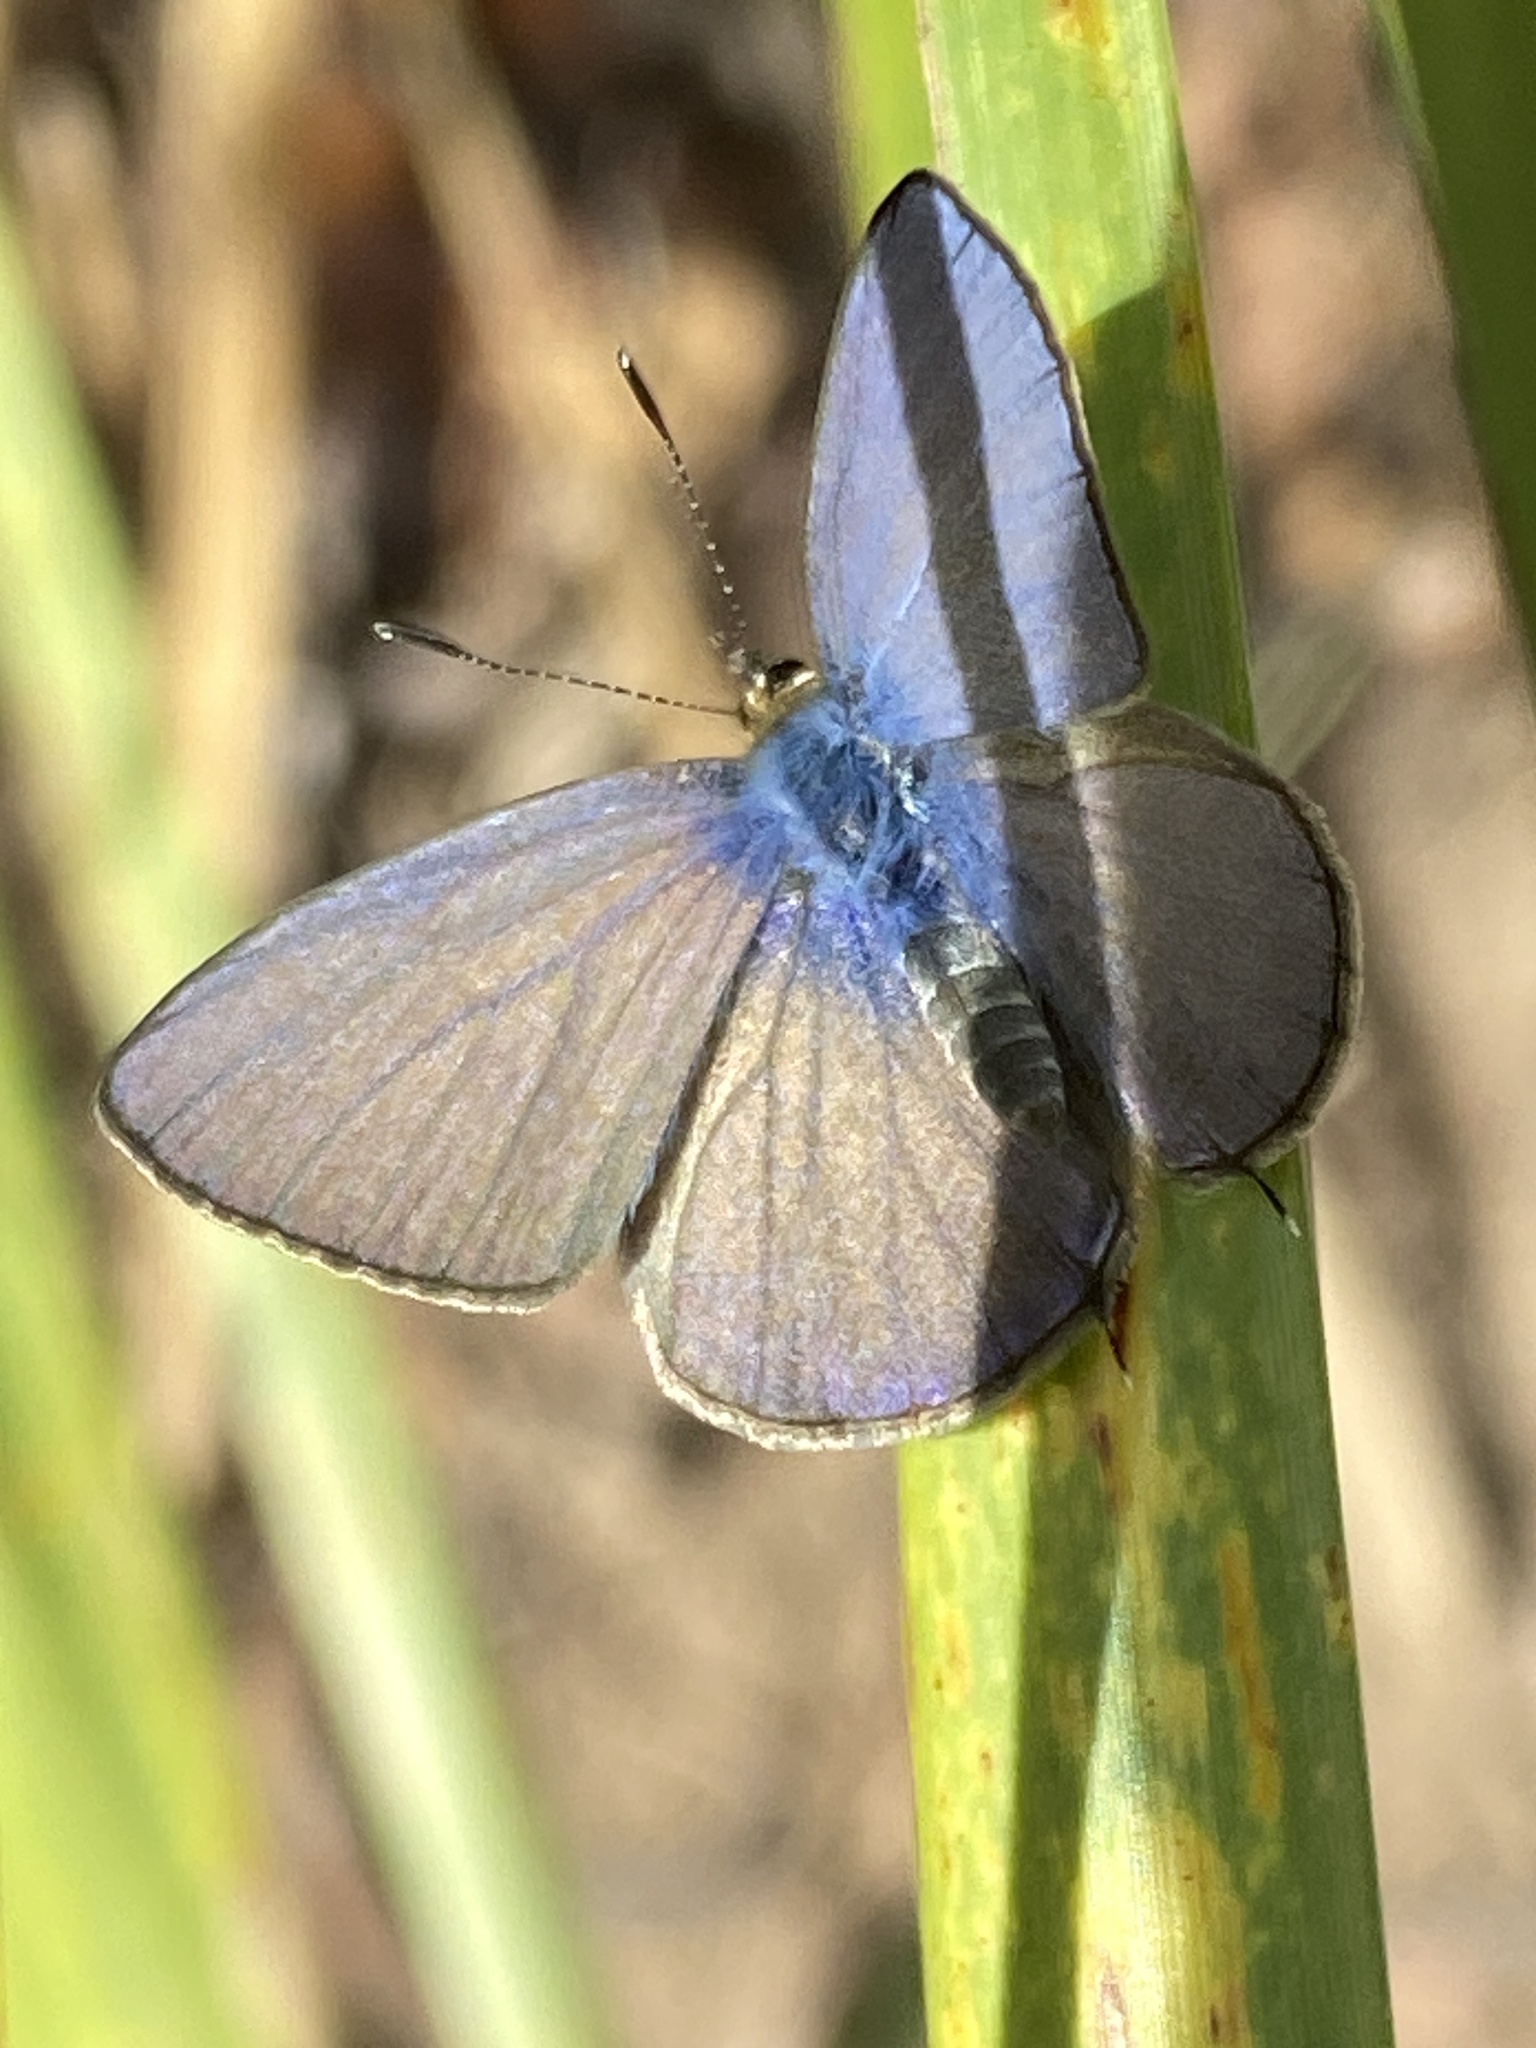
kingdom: Animalia
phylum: Arthropoda
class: Insecta
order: Lepidoptera
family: Lycaenidae
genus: Nacaduba
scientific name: Nacaduba berenice
